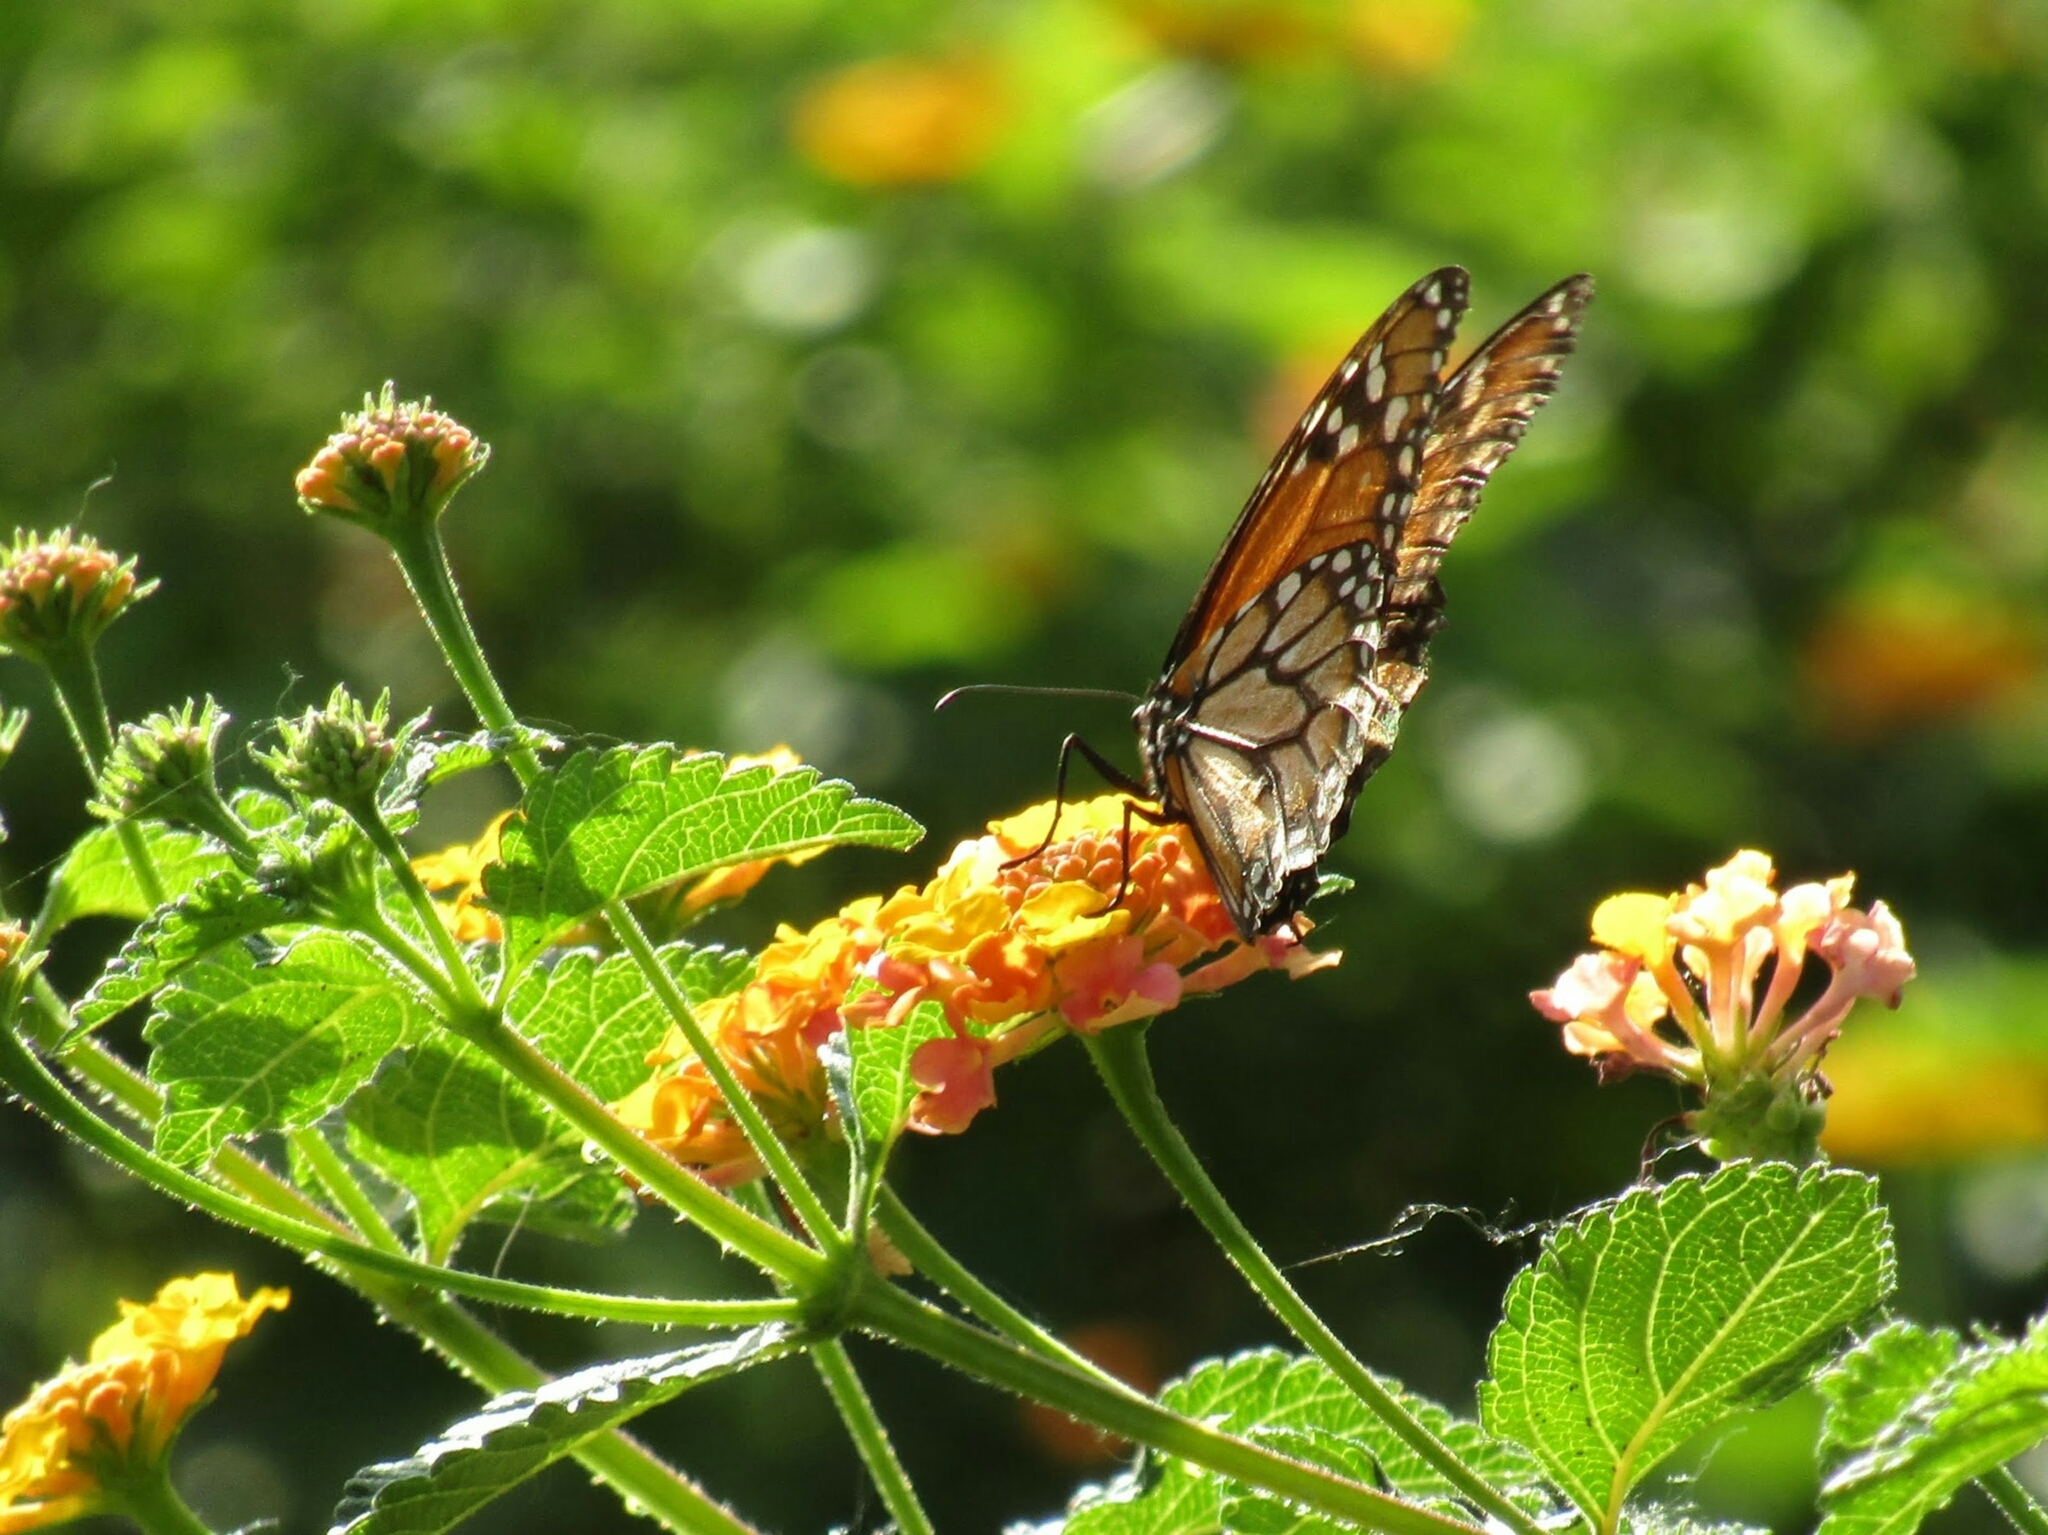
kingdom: Animalia
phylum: Arthropoda
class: Insecta
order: Lepidoptera
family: Nymphalidae
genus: Danaus
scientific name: Danaus erippus
